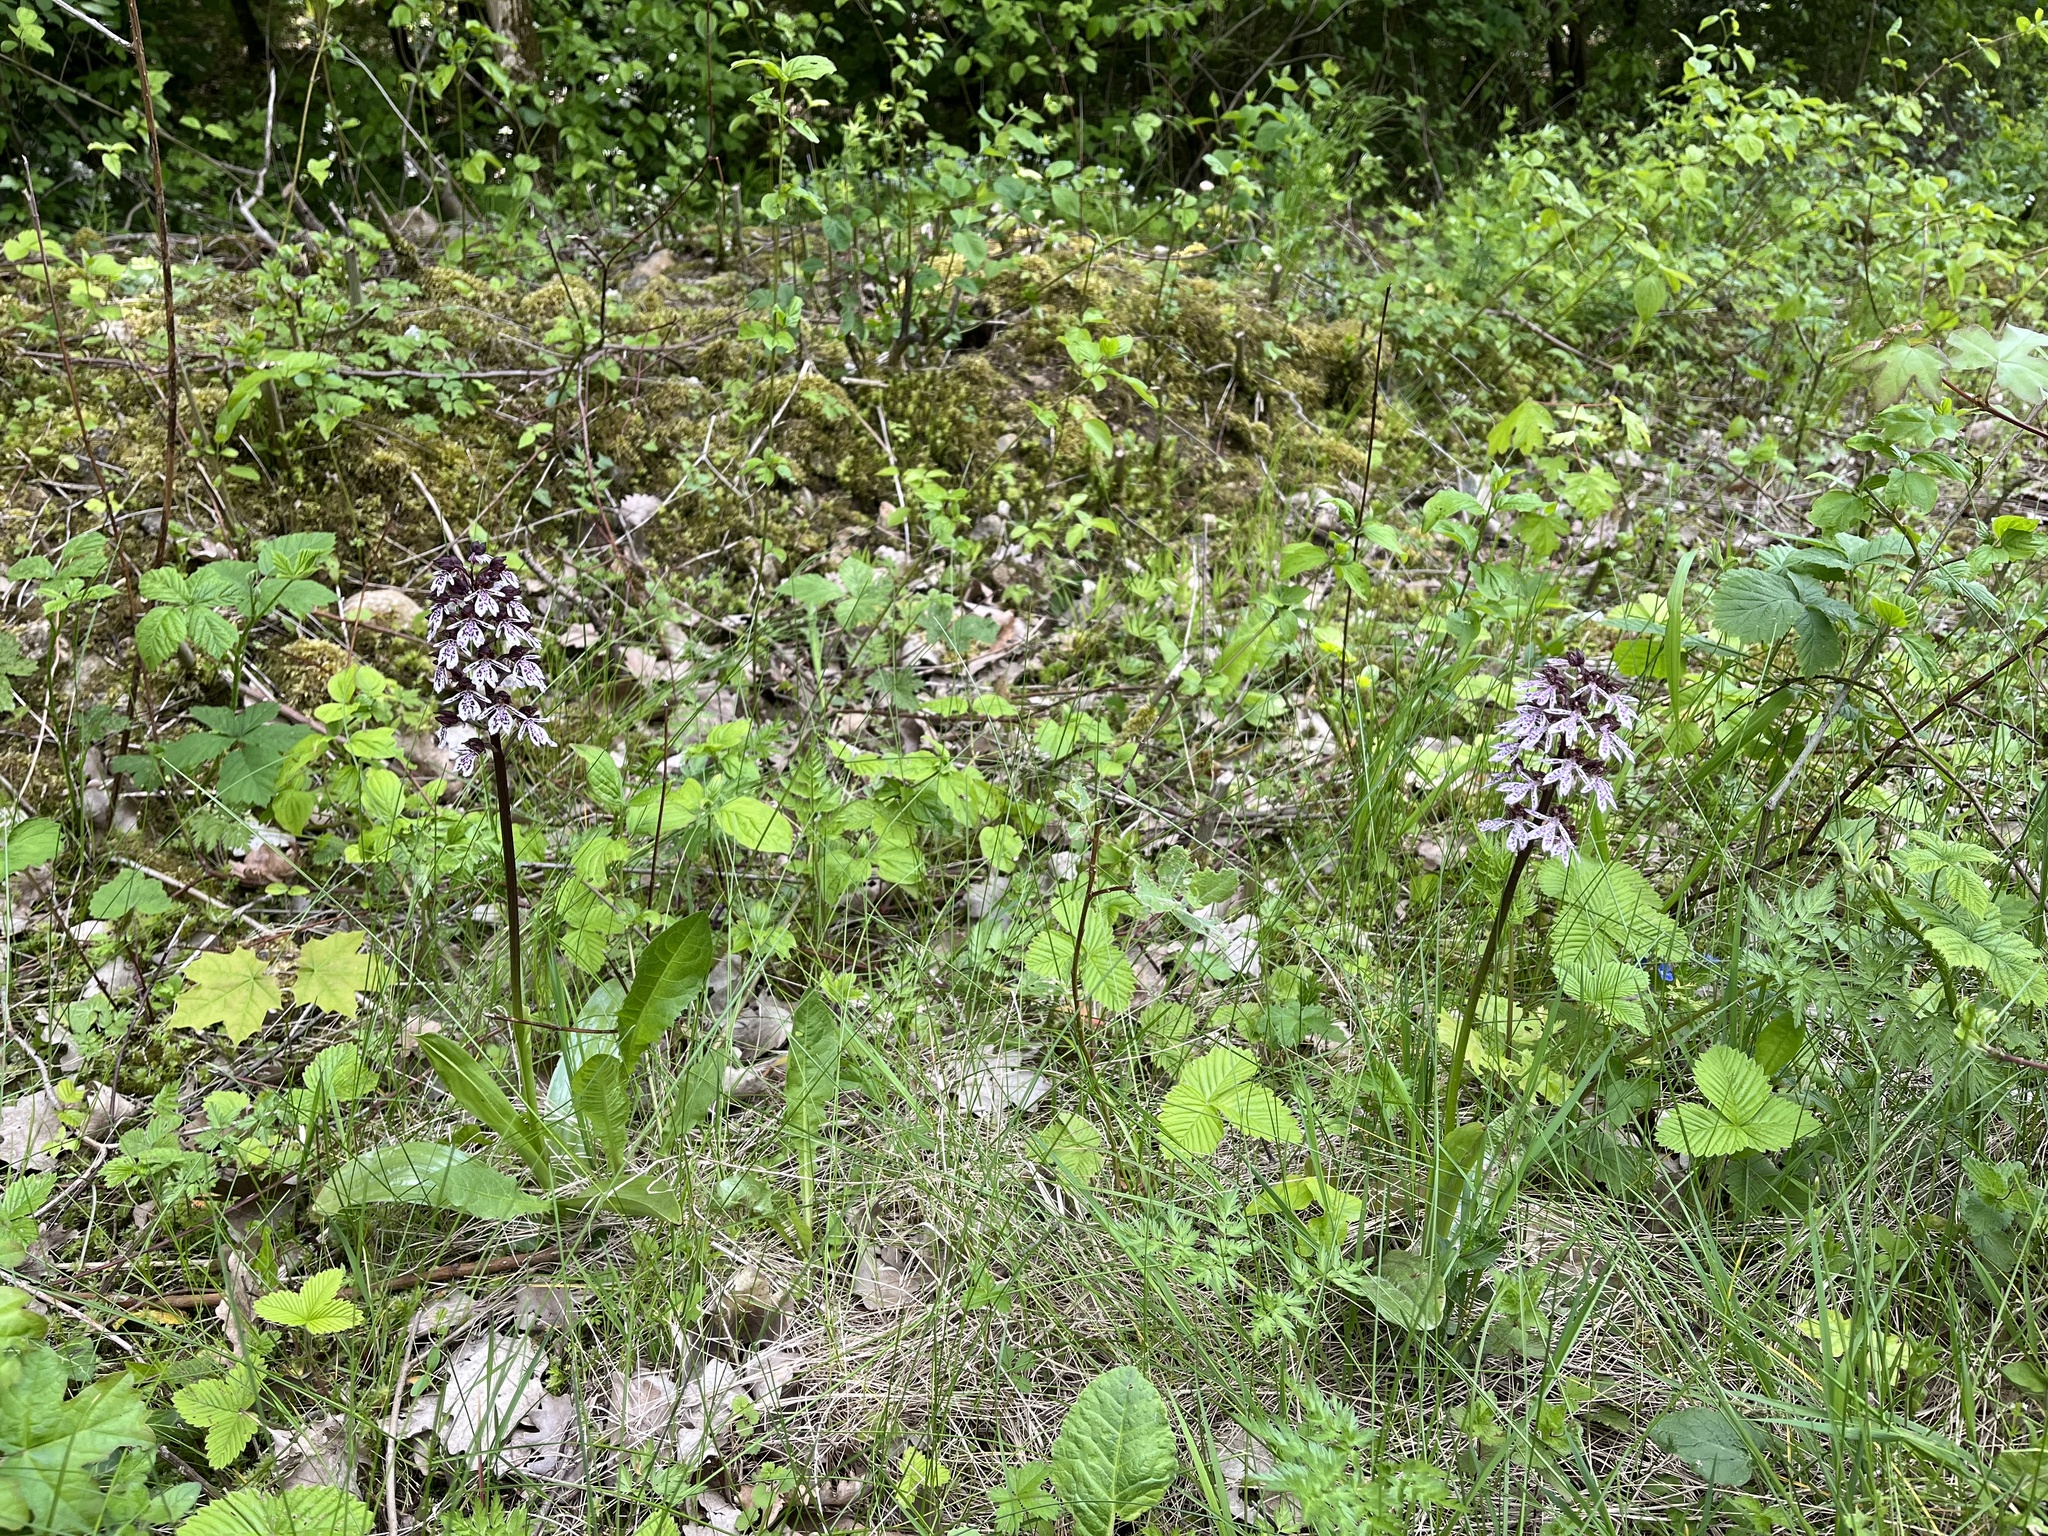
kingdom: Plantae
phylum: Tracheophyta
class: Liliopsida
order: Asparagales
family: Orchidaceae
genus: Orchis
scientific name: Orchis purpurea
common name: Lady orchid
